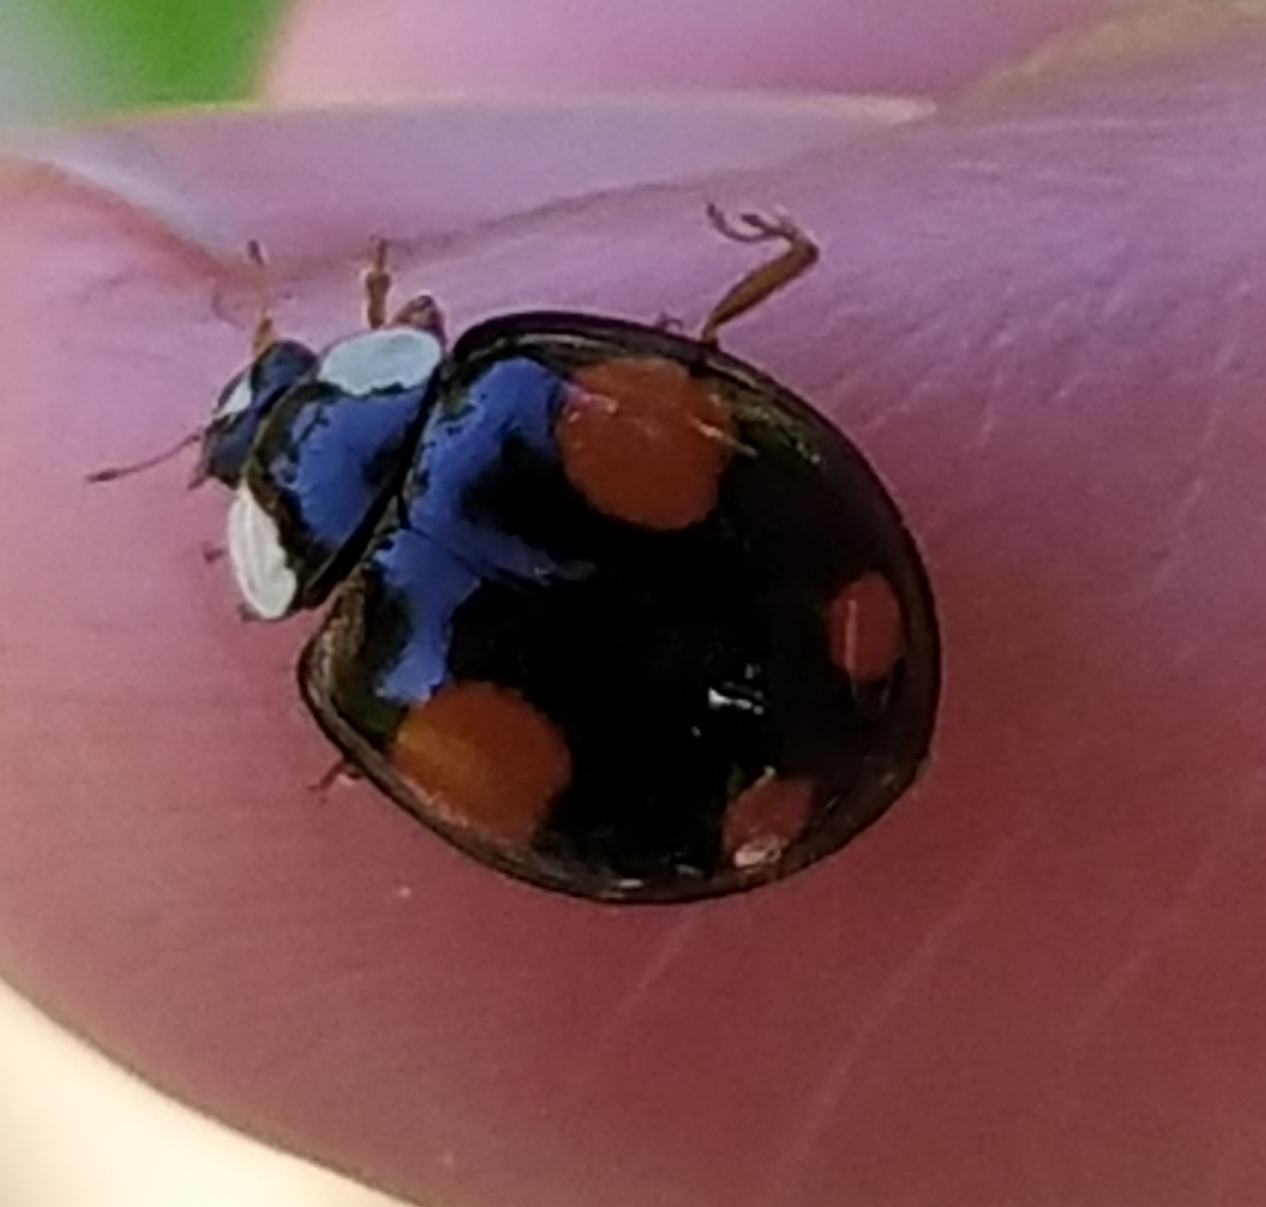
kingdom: Animalia
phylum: Arthropoda
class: Insecta
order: Coleoptera
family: Coccinellidae
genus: Harmonia
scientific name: Harmonia axyridis
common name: Harlequin ladybird
